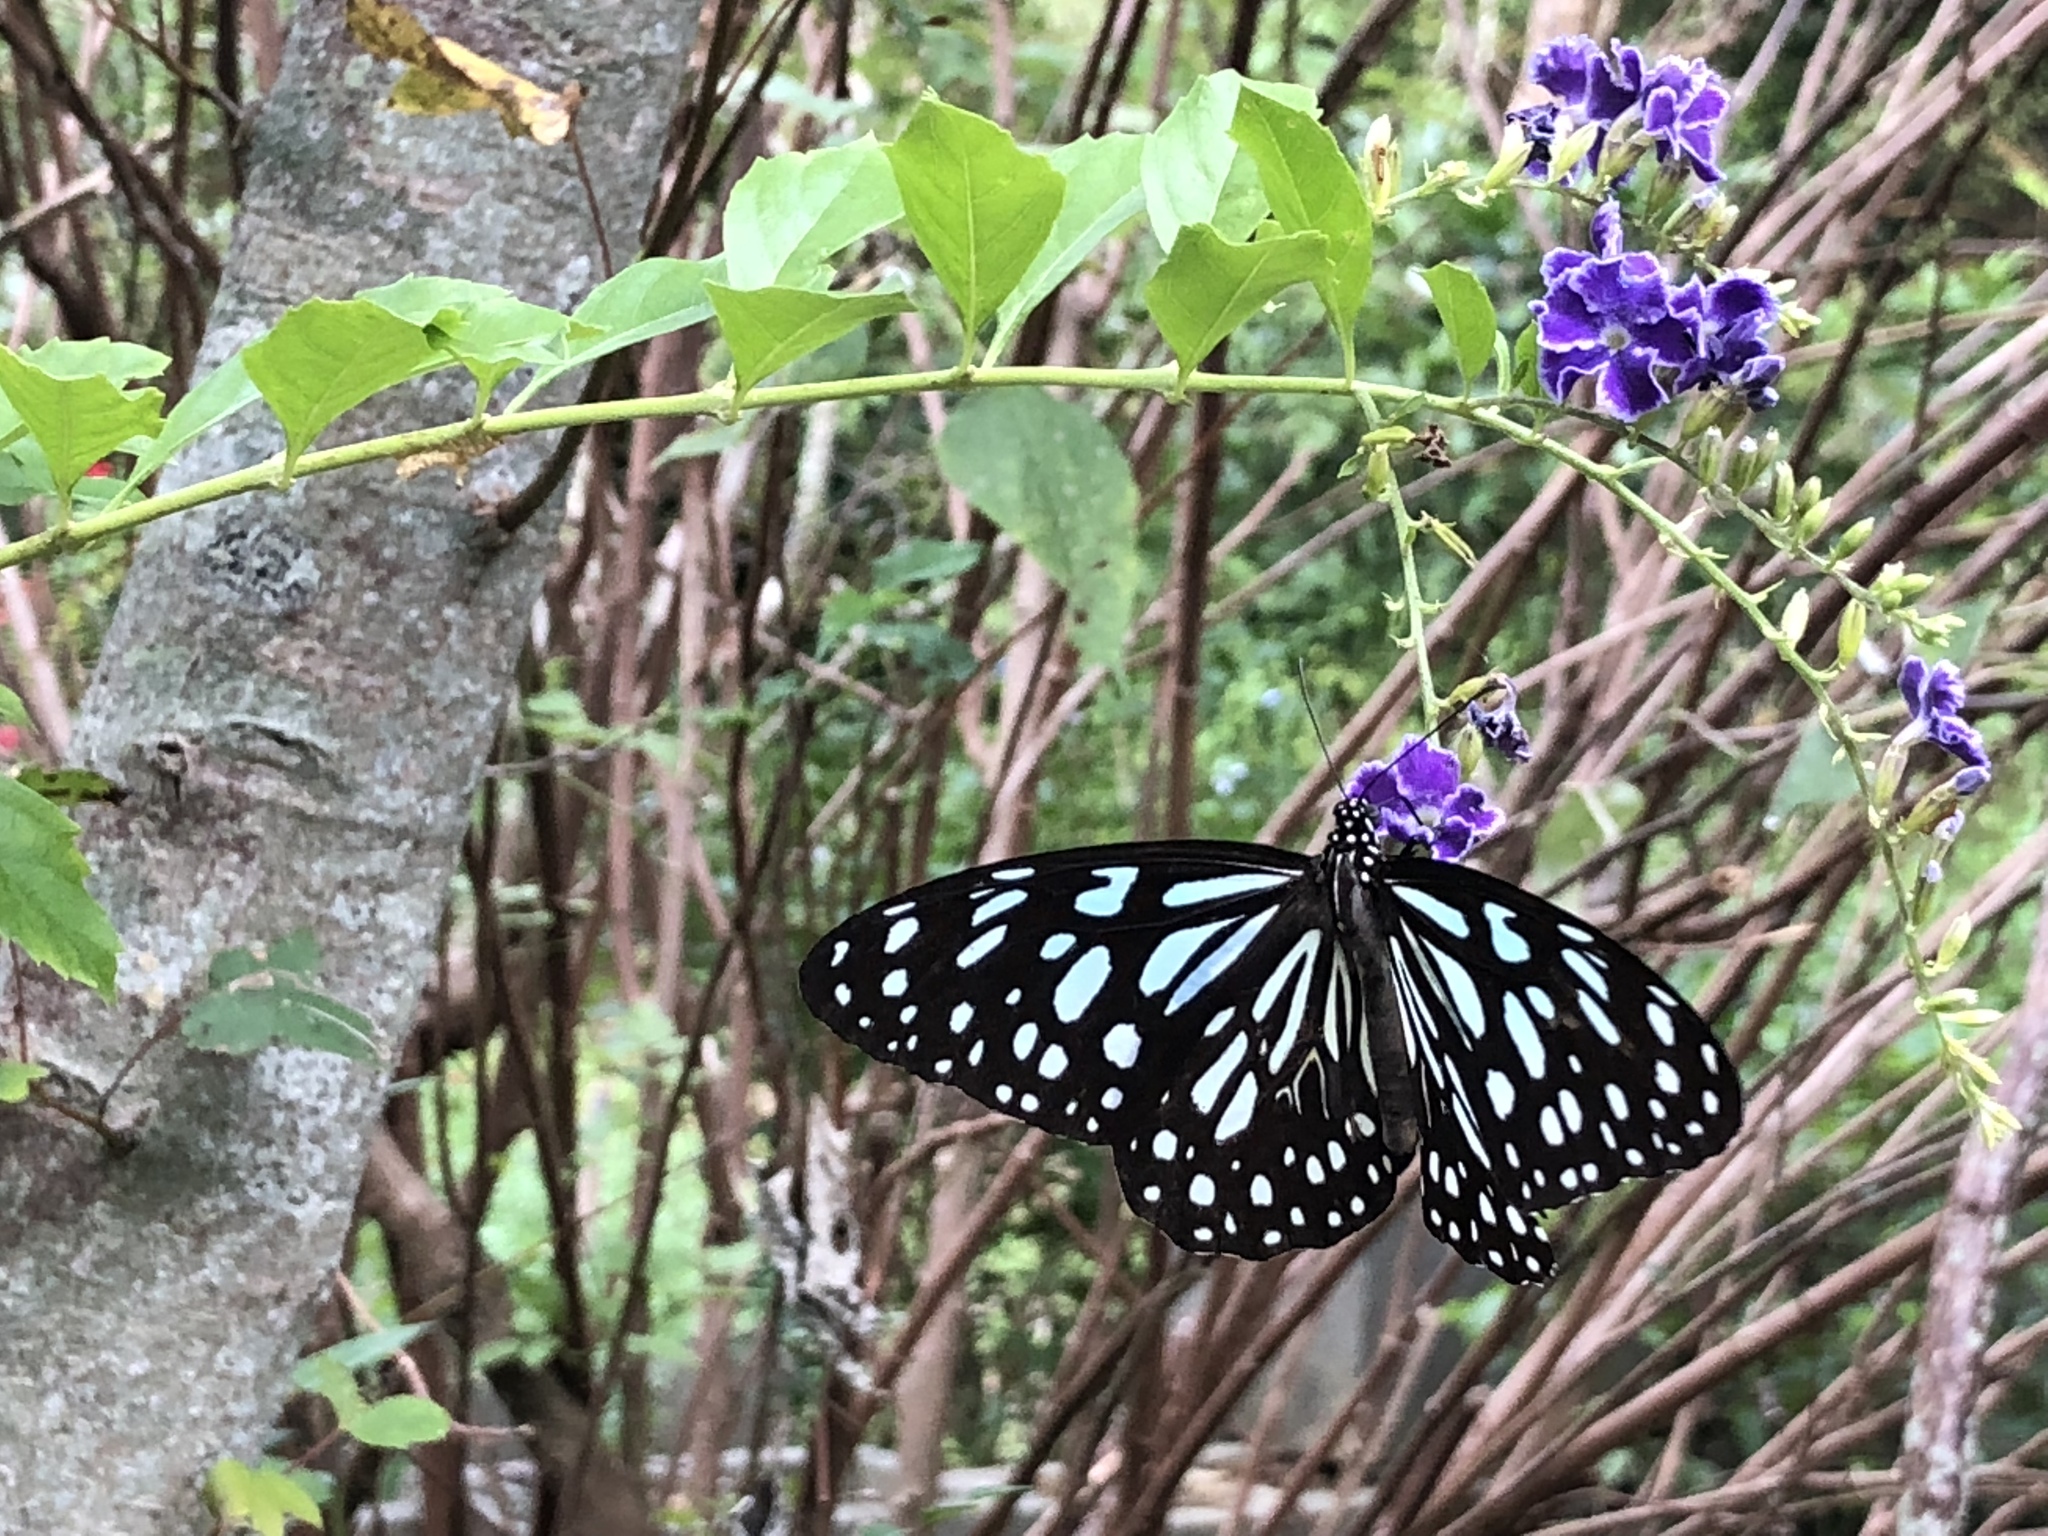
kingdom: Animalia
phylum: Arthropoda
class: Insecta
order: Lepidoptera
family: Nymphalidae
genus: Tirumala
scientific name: Tirumala limniace
